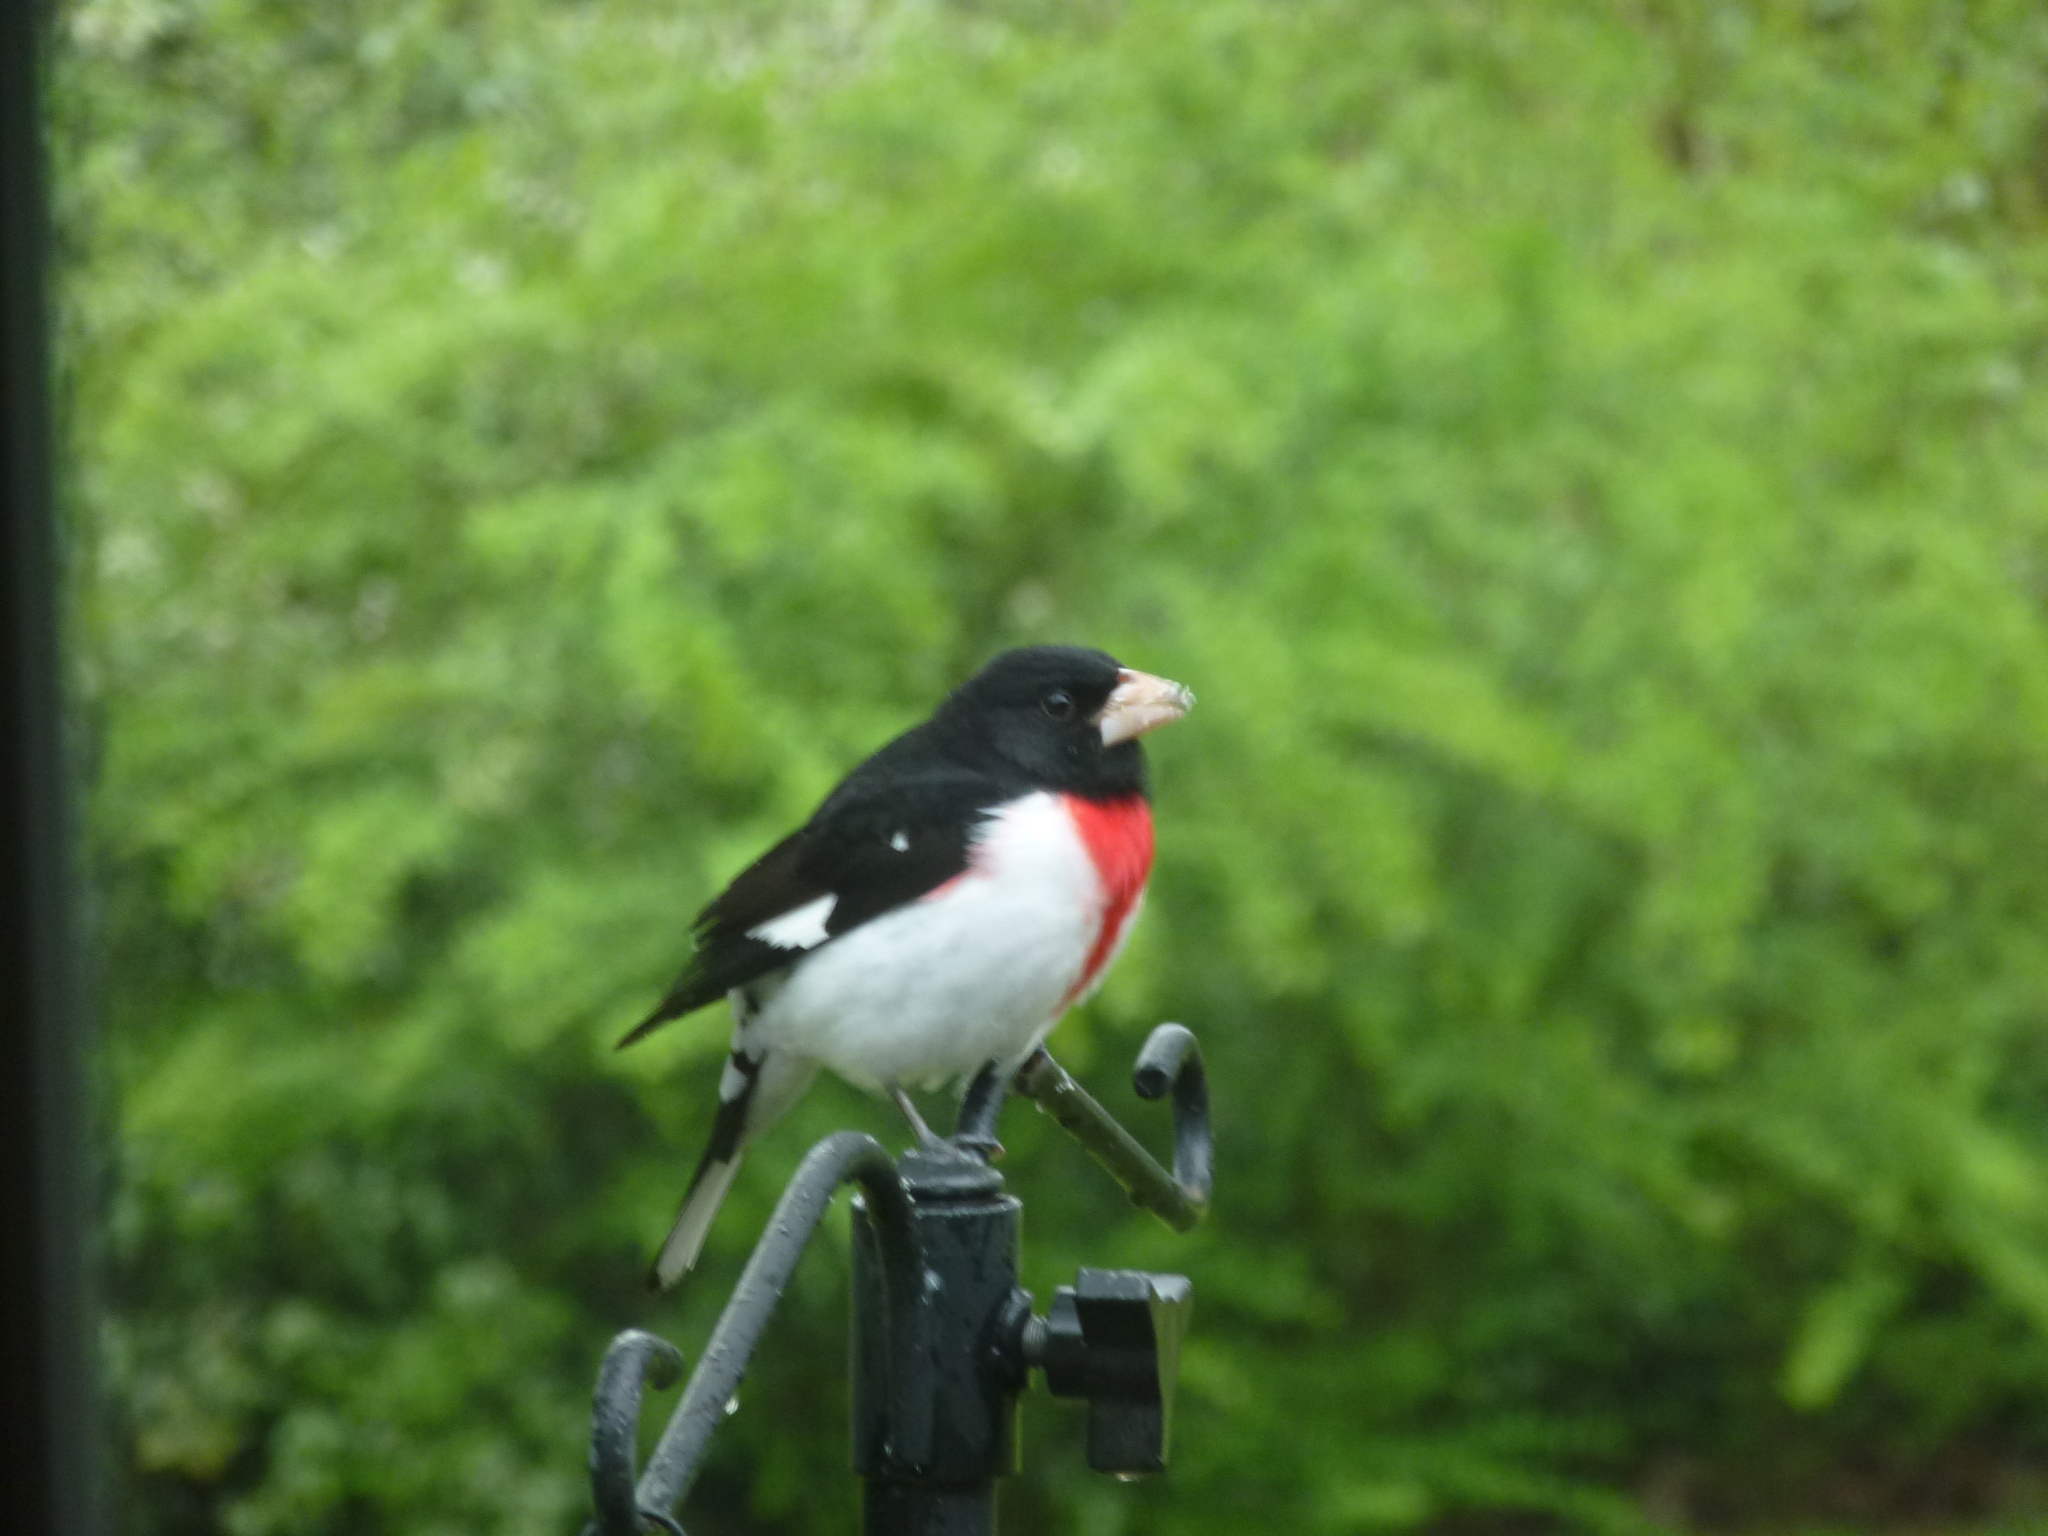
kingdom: Animalia
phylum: Chordata
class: Aves
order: Passeriformes
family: Cardinalidae
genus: Pheucticus
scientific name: Pheucticus ludovicianus
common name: Rose-breasted grosbeak
